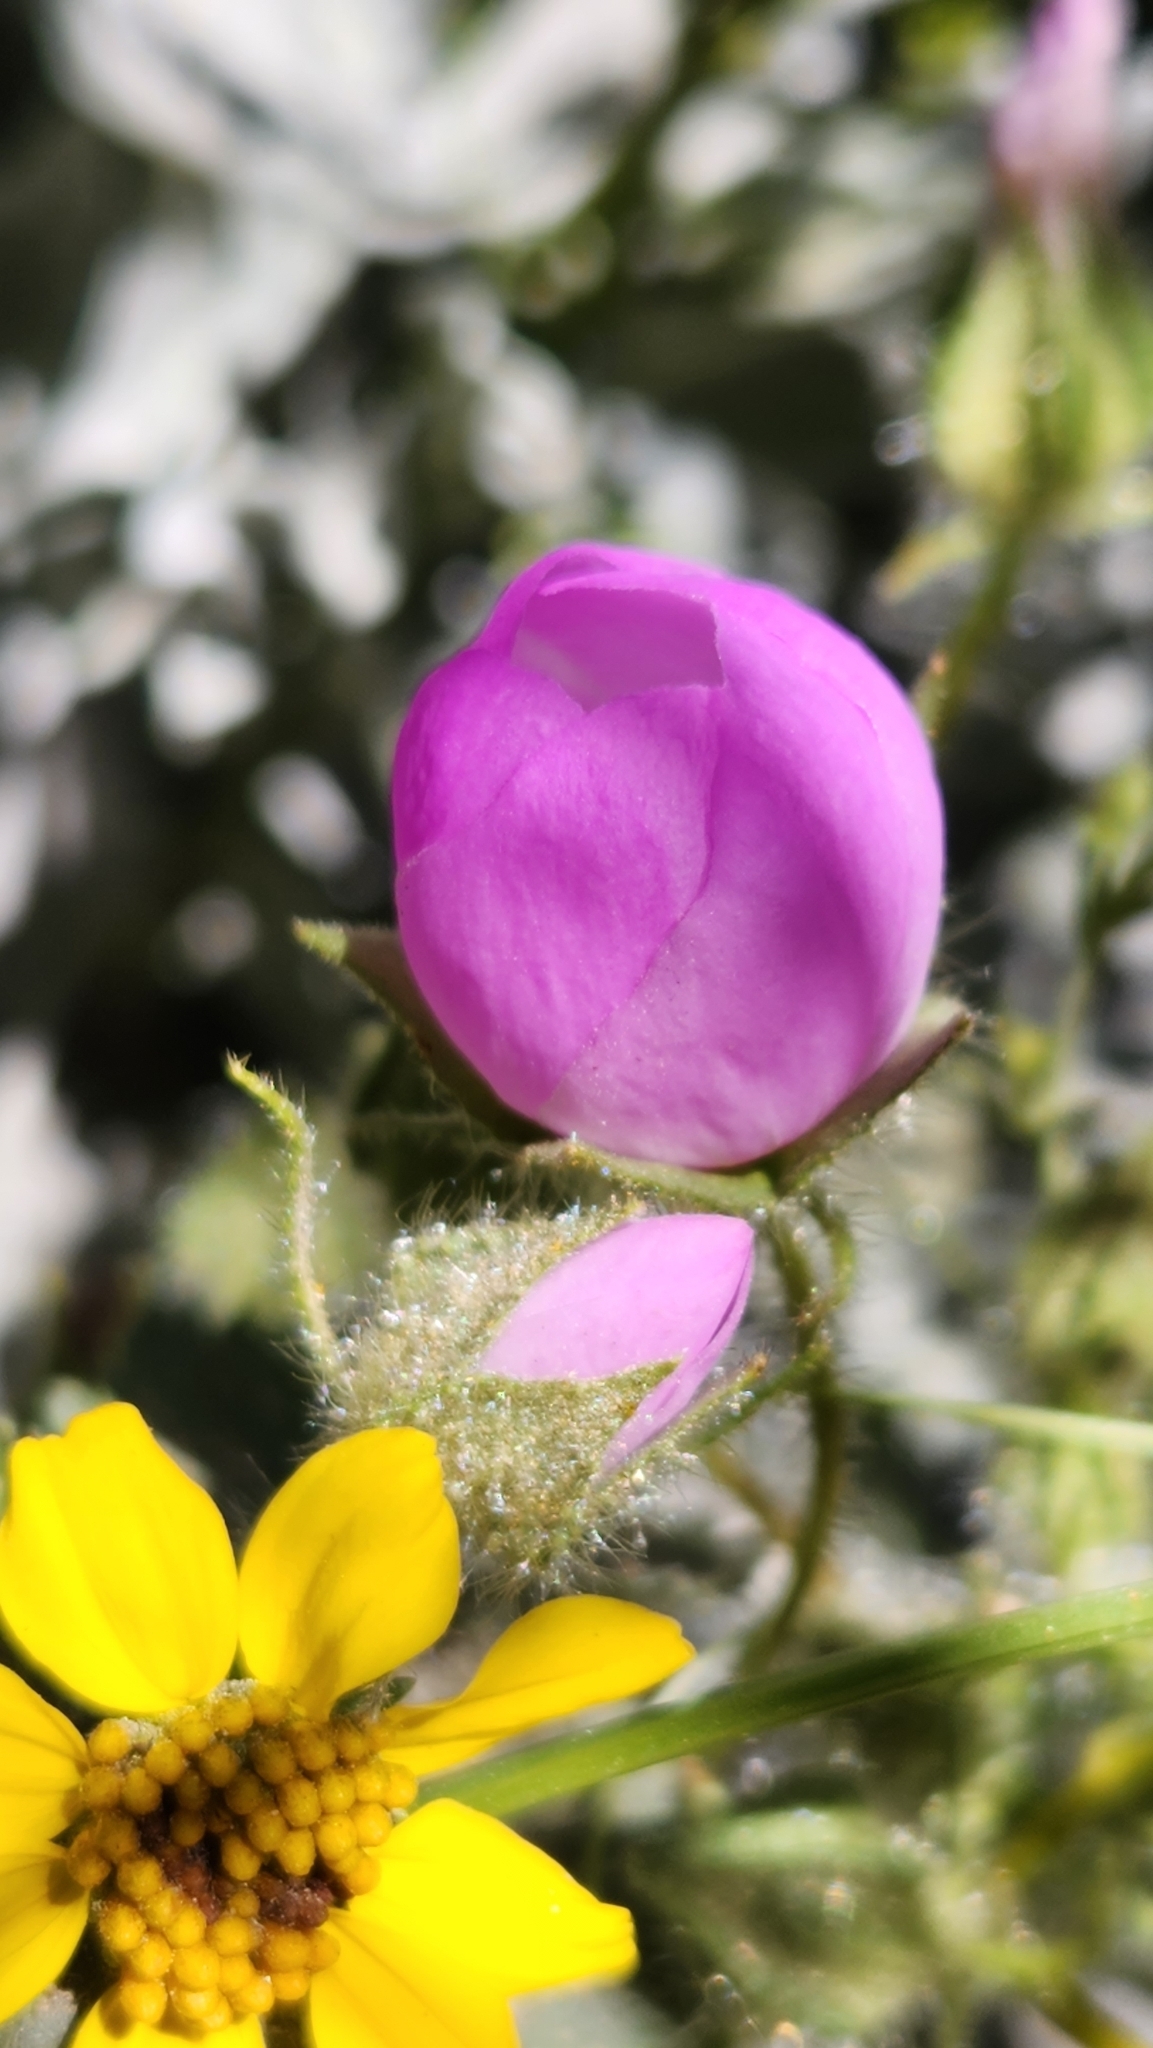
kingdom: Plantae
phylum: Tracheophyta
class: Magnoliopsida
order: Malvales
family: Malvaceae
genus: Eremalche
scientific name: Eremalche rotundifolia
